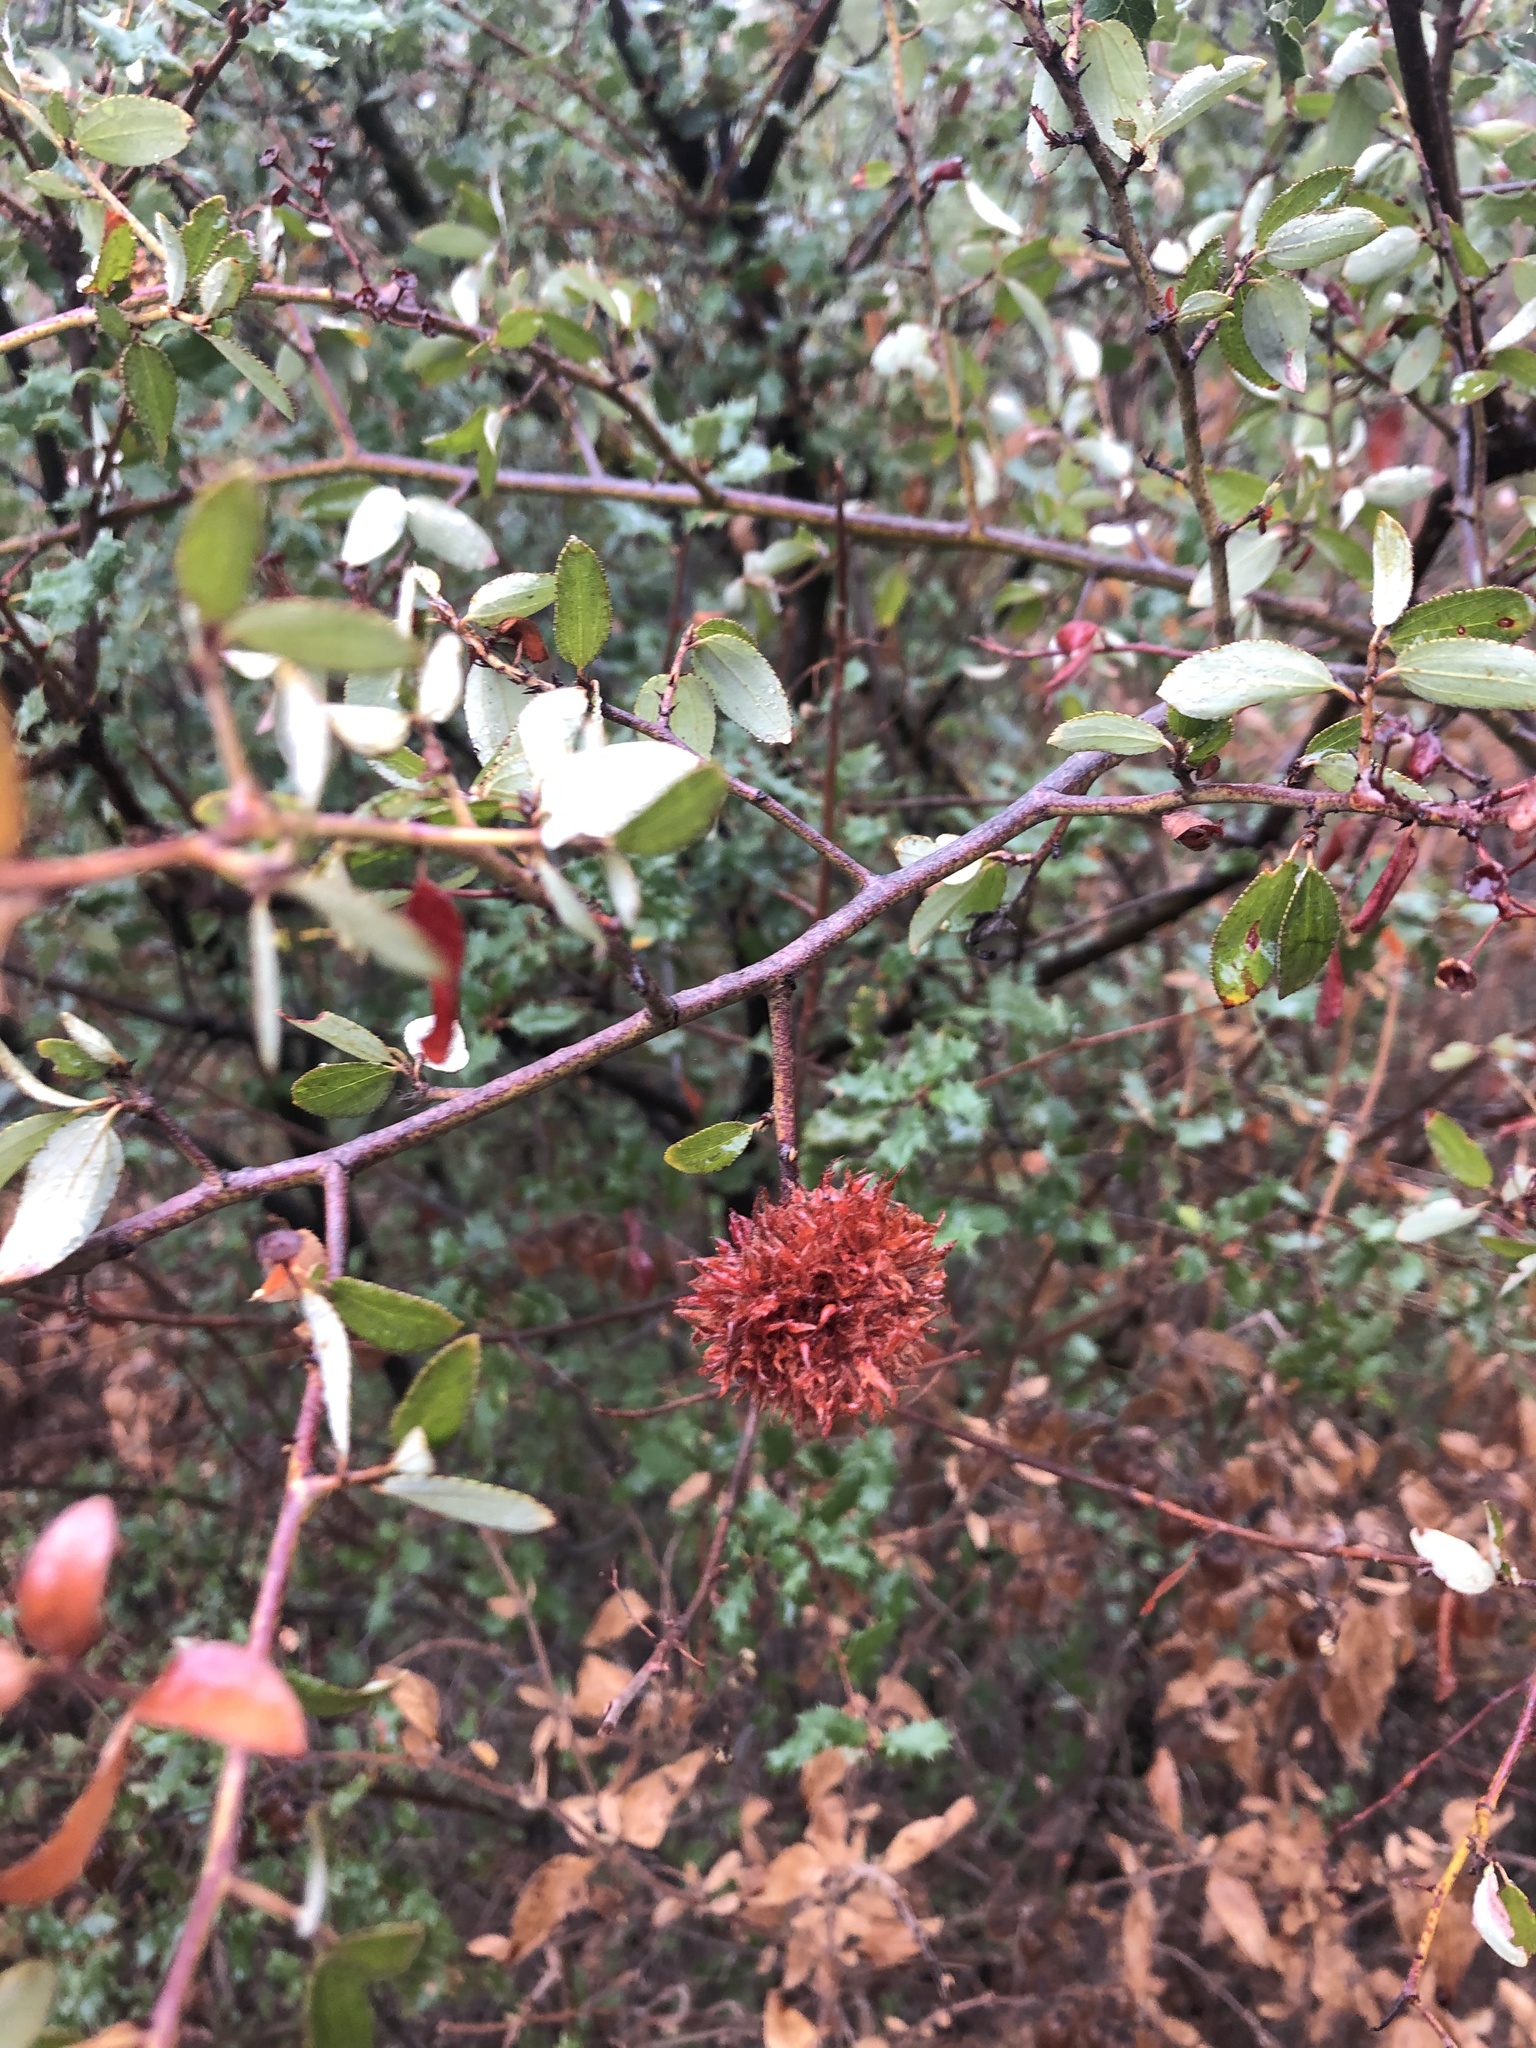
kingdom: Animalia
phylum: Arthropoda
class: Insecta
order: Diptera
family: Cecidomyiidae
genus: Asphondylia
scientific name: Asphondylia ceanothi
